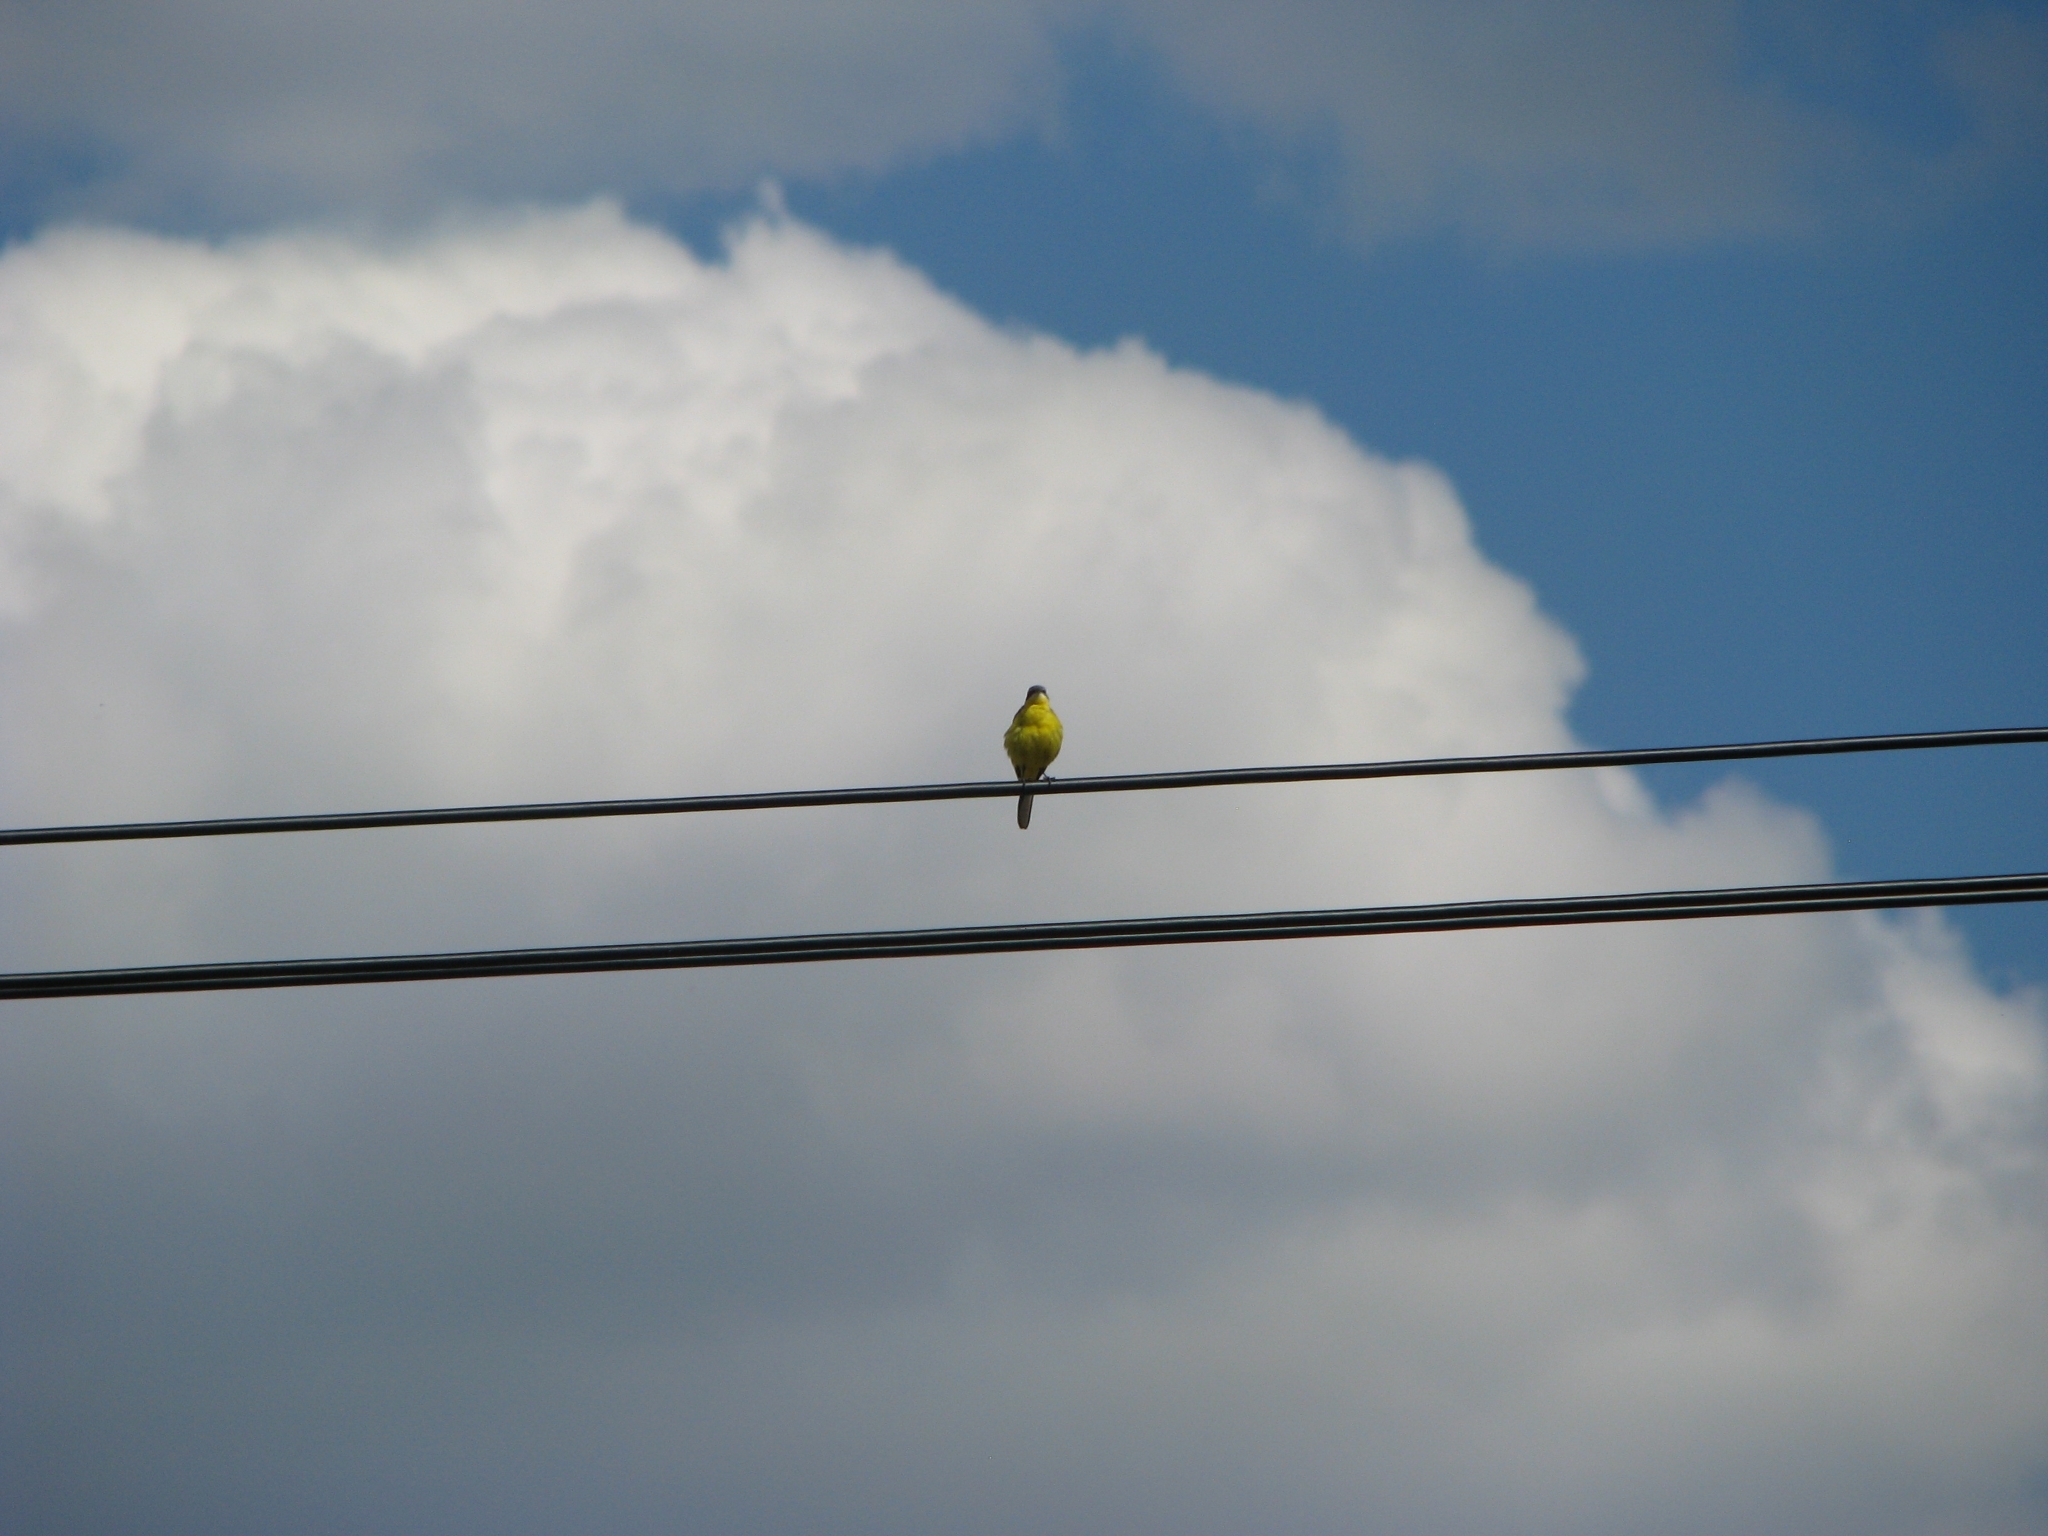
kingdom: Animalia
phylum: Chordata
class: Aves
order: Passeriformes
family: Motacillidae
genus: Motacilla
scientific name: Motacilla flava
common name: Western yellow wagtail
